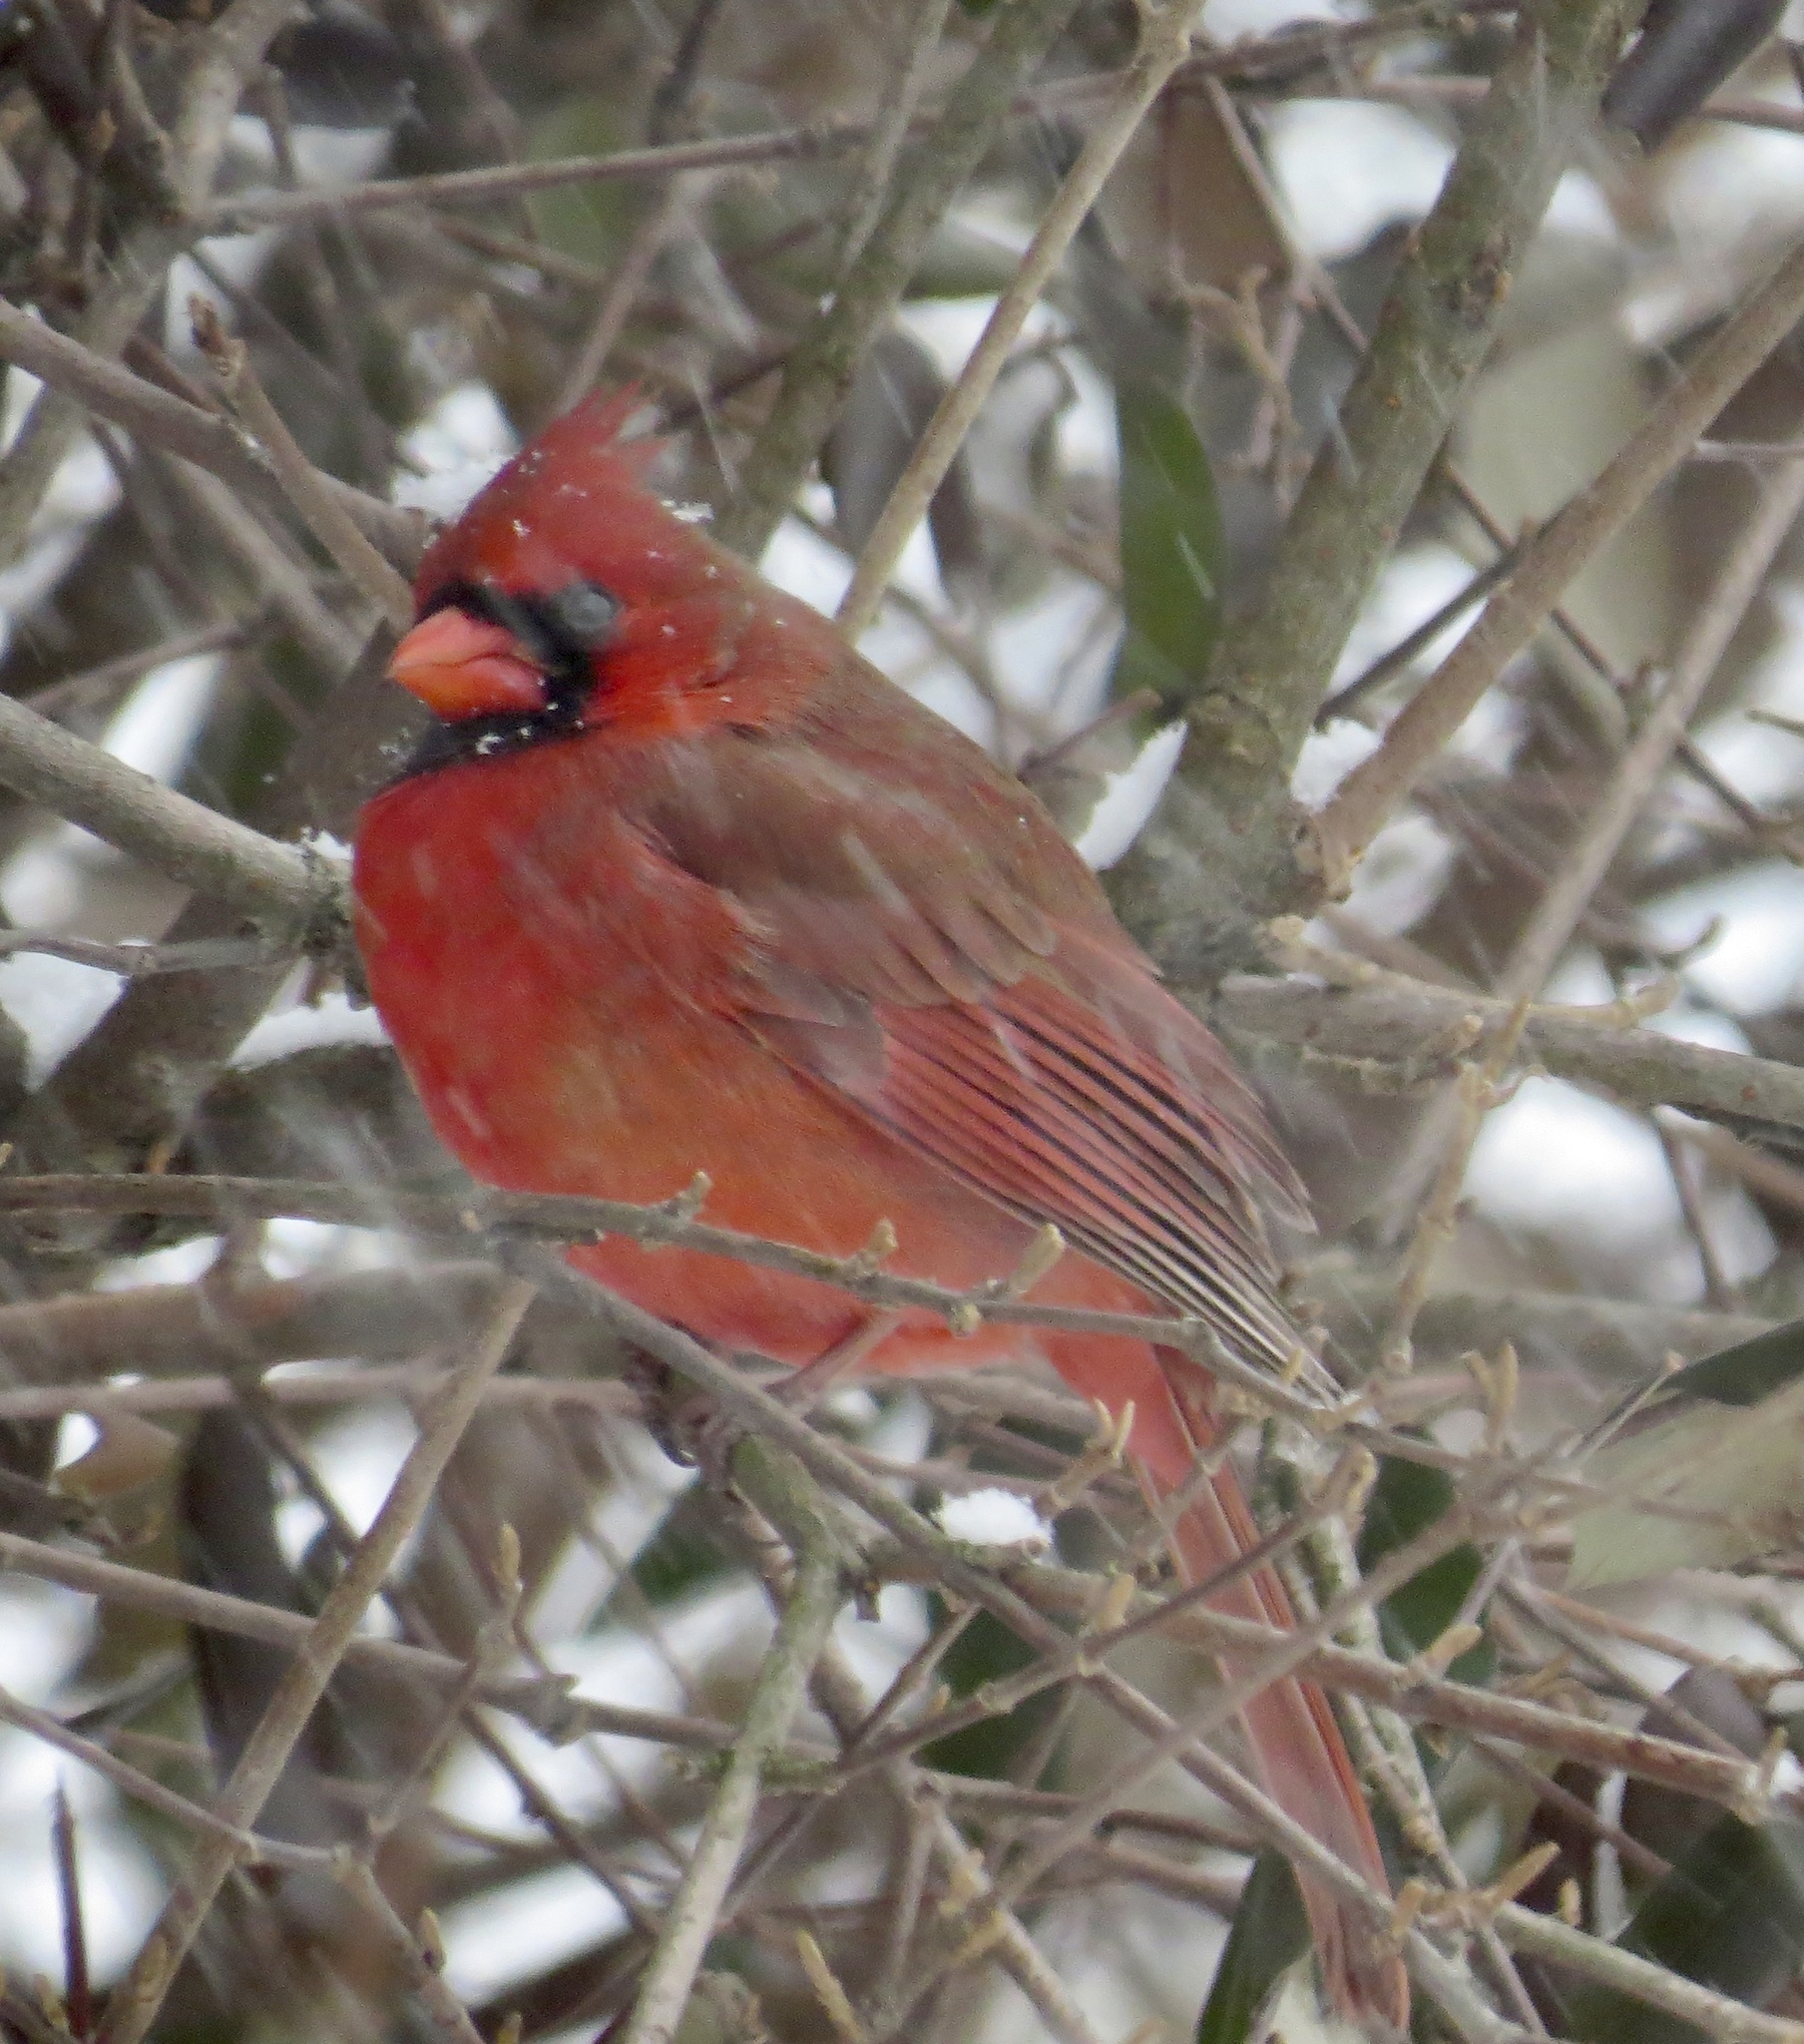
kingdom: Animalia
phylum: Chordata
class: Aves
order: Passeriformes
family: Cardinalidae
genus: Cardinalis
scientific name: Cardinalis cardinalis
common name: Northern cardinal
